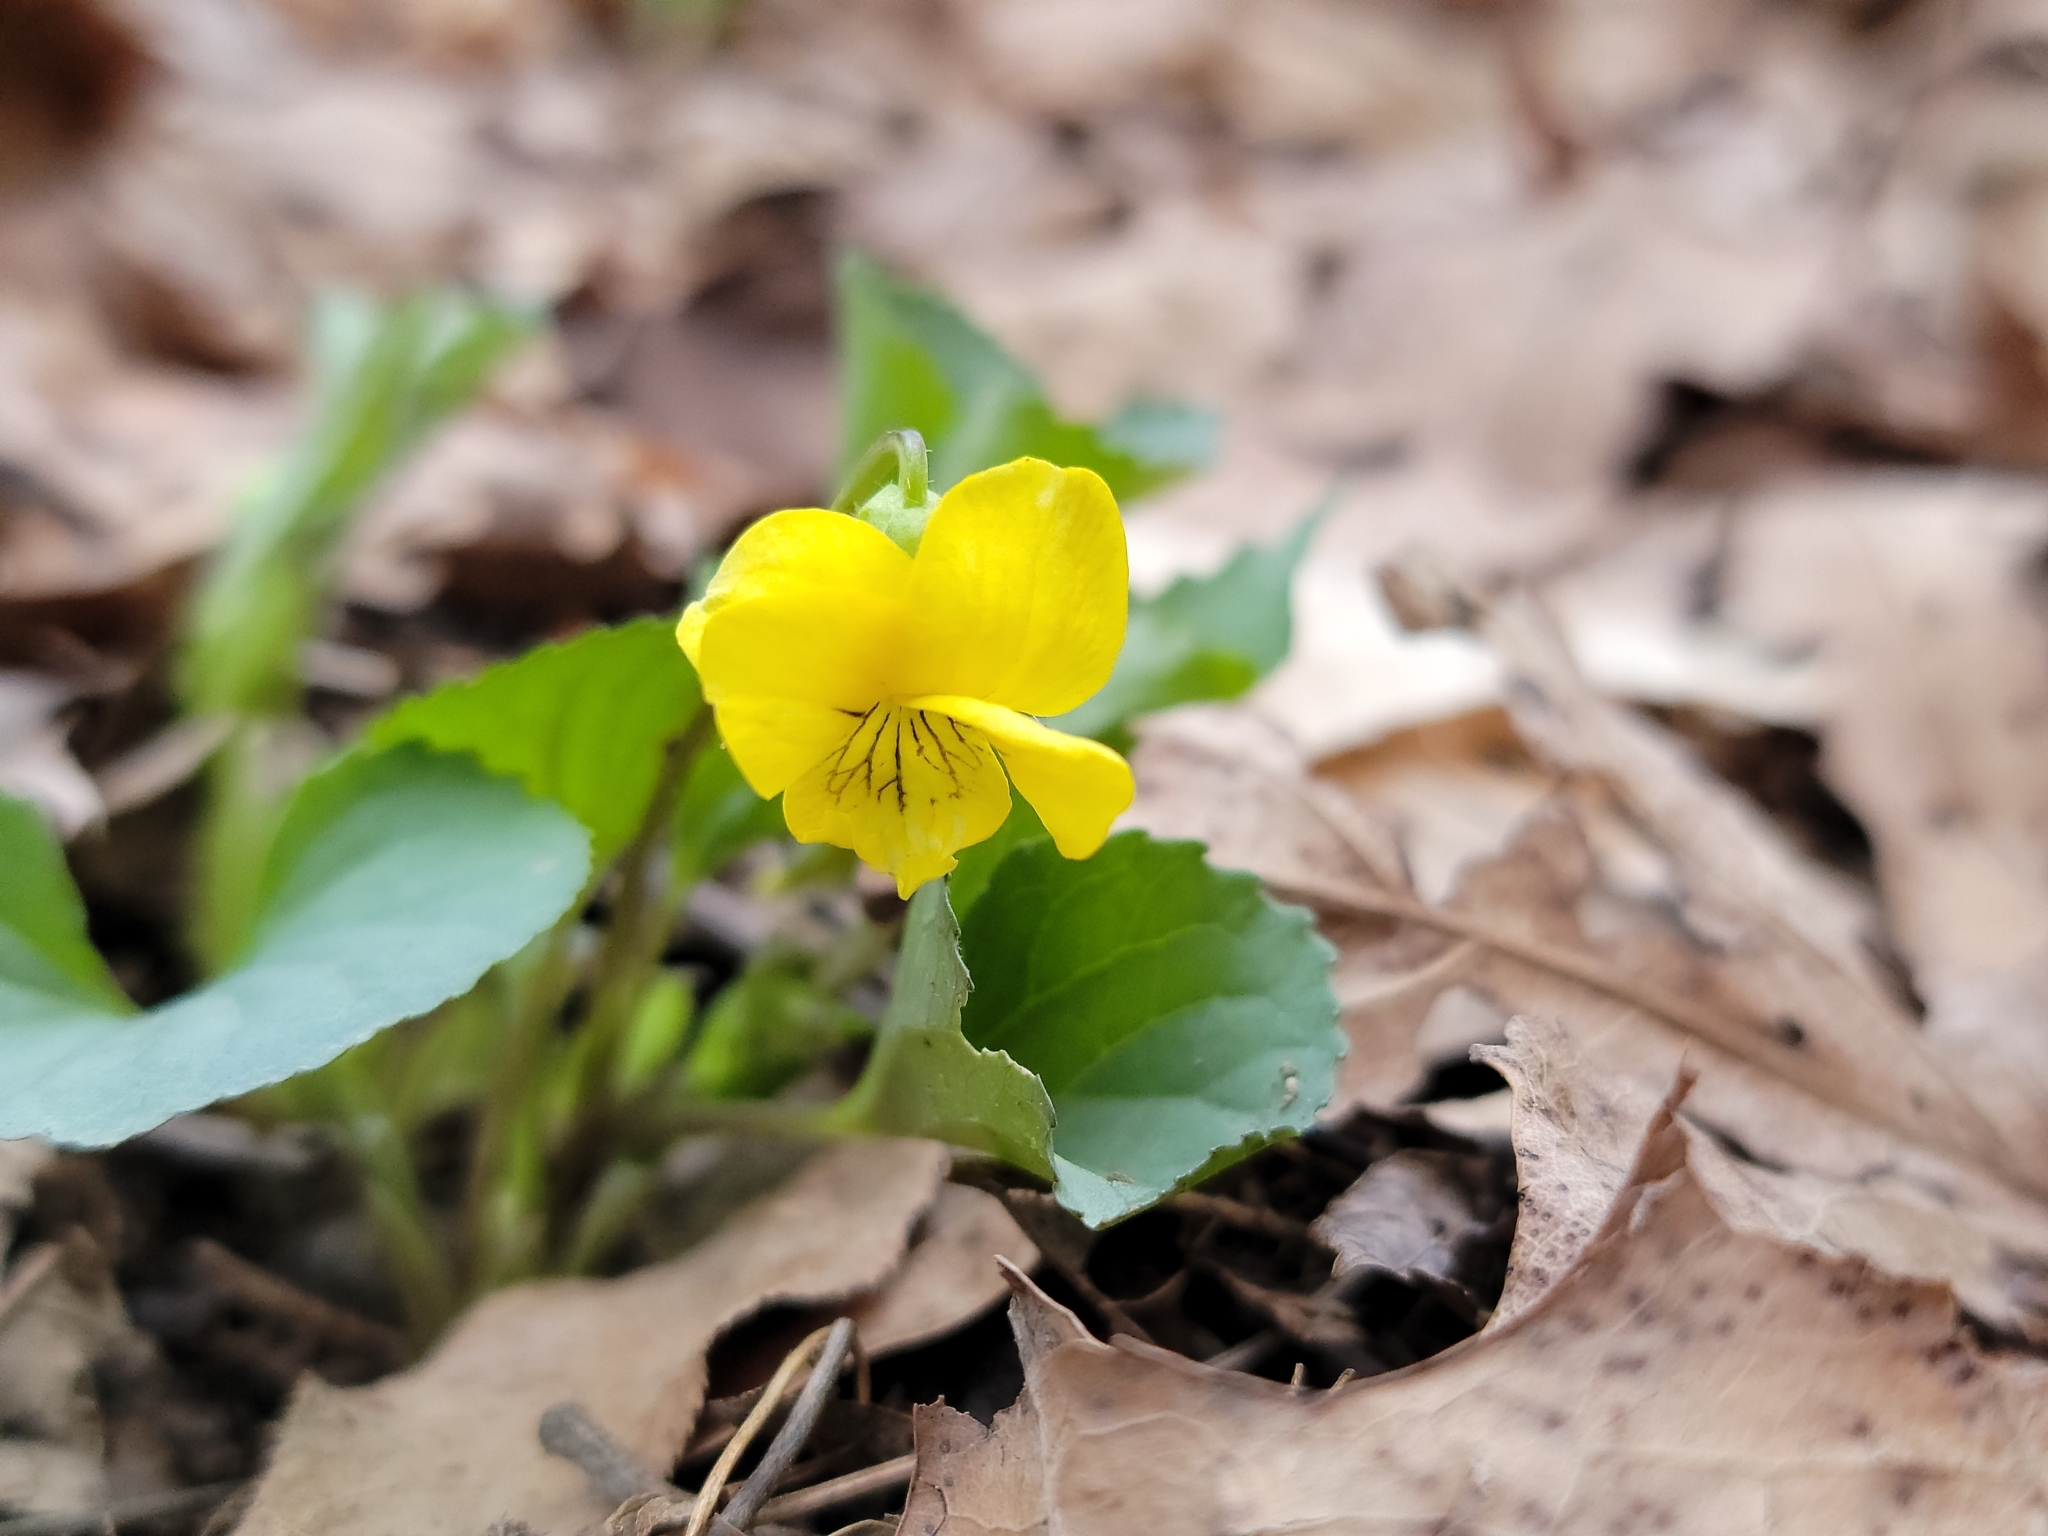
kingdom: Plantae
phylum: Tracheophyta
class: Magnoliopsida
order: Malpighiales
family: Violaceae
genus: Viola
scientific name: Viola eriocarpa
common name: Smooth yellow violet
